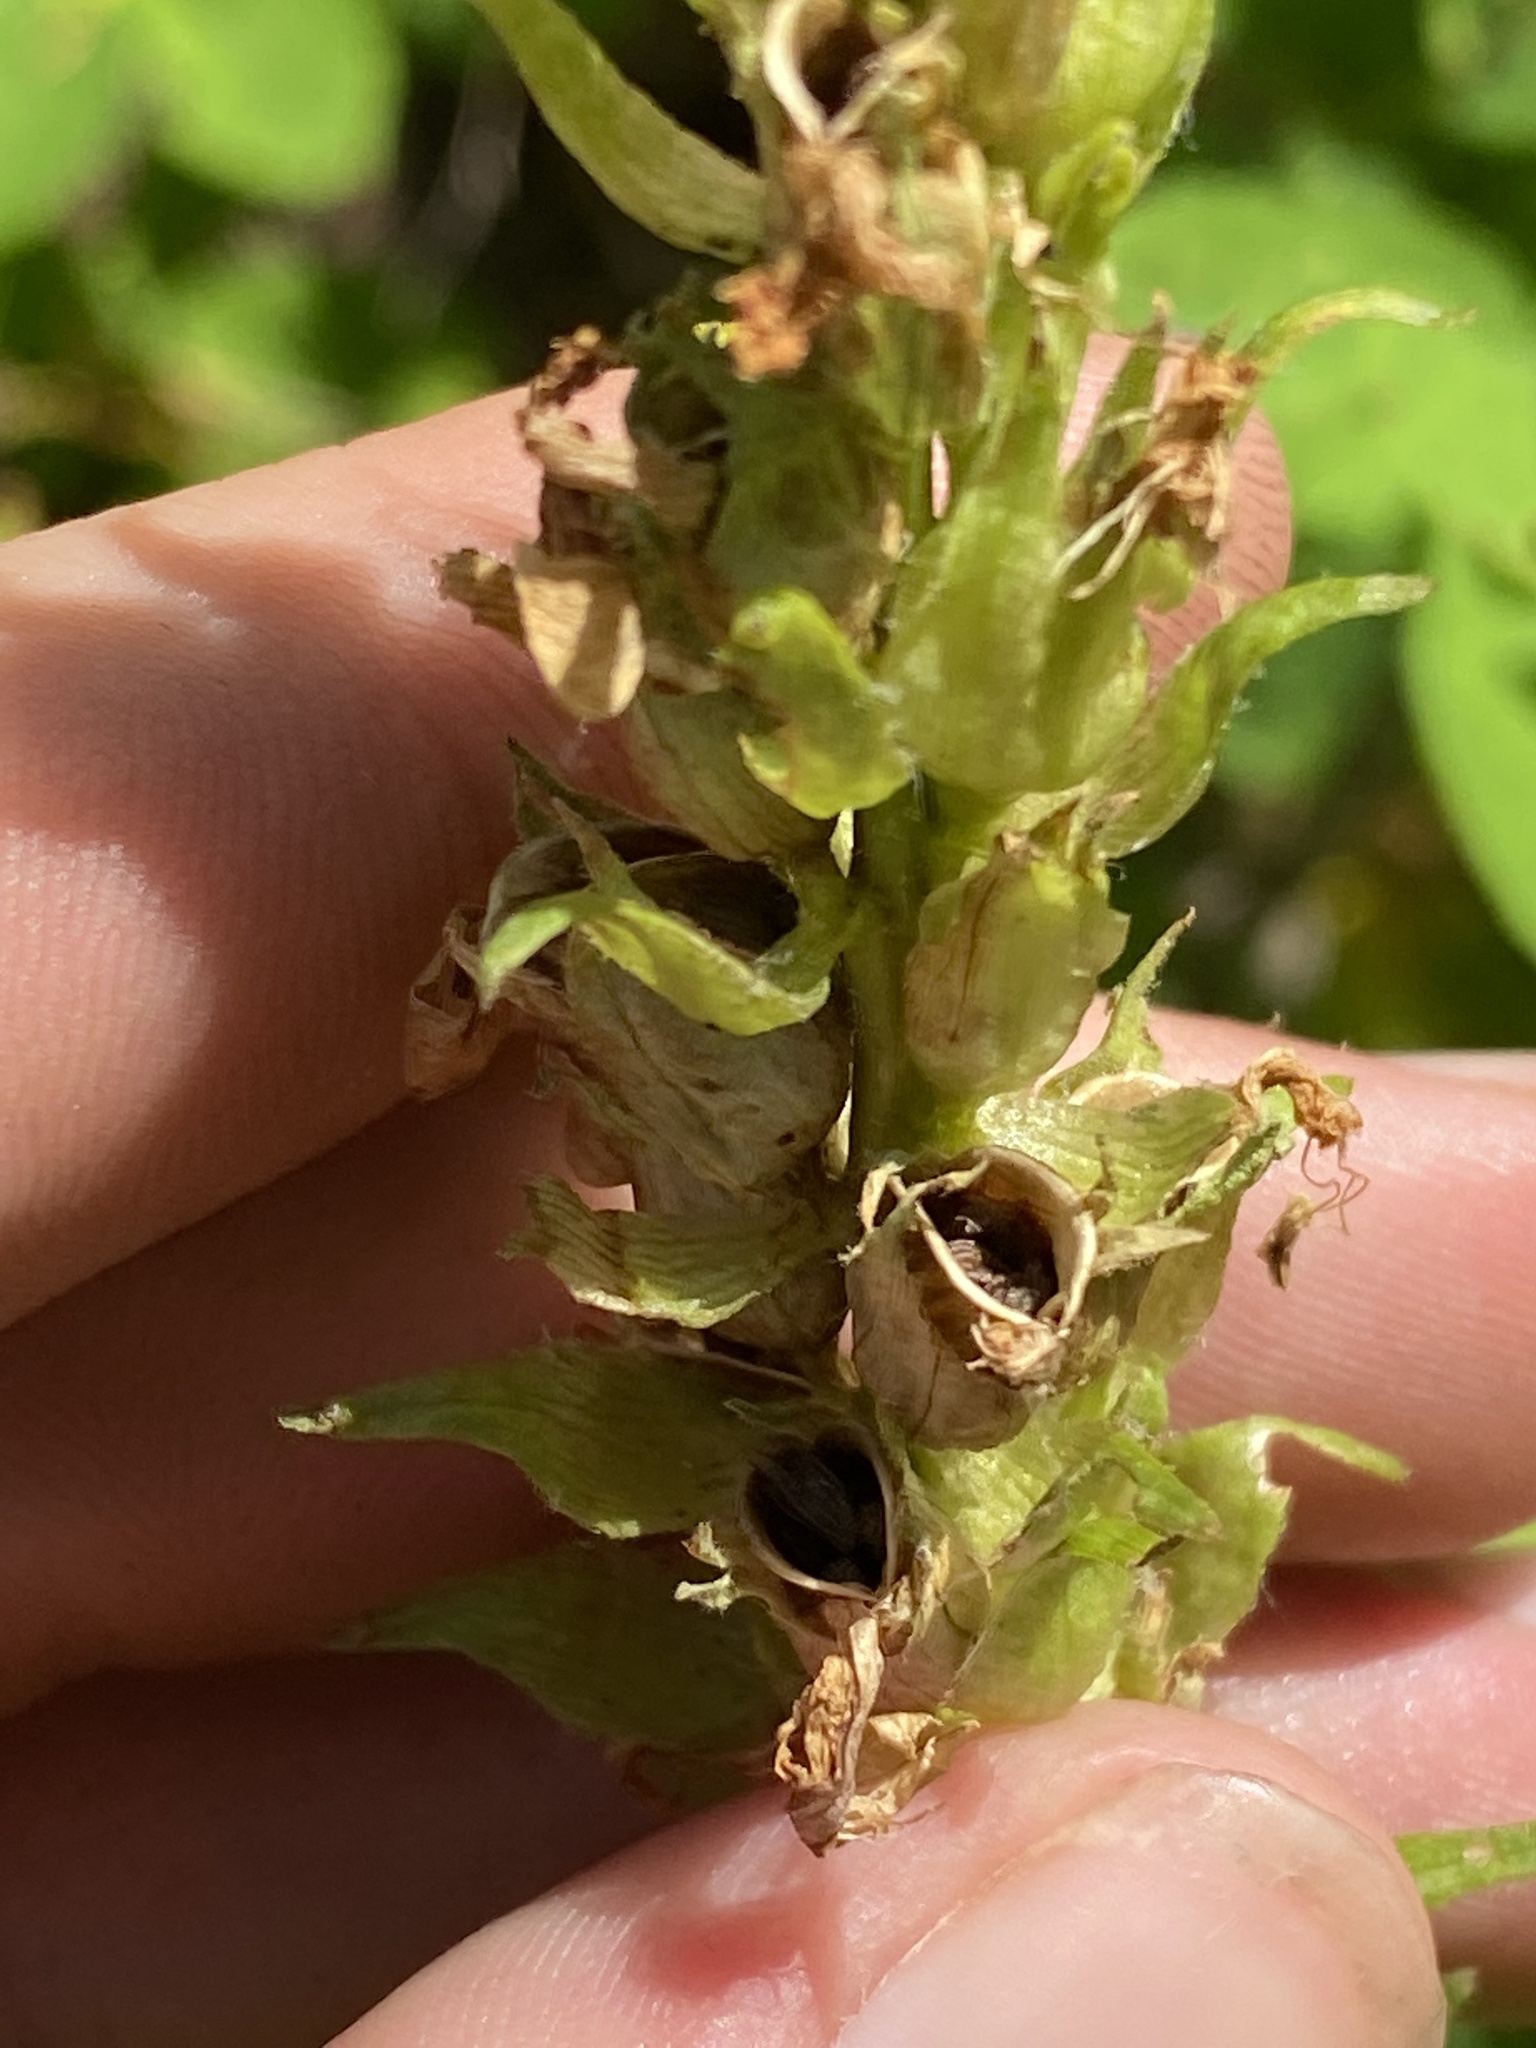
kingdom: Plantae
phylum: Tracheophyta
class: Magnoliopsida
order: Lamiales
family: Orobanchaceae
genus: Pedicularis
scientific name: Pedicularis bracteosa
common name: Bracted lousewort
